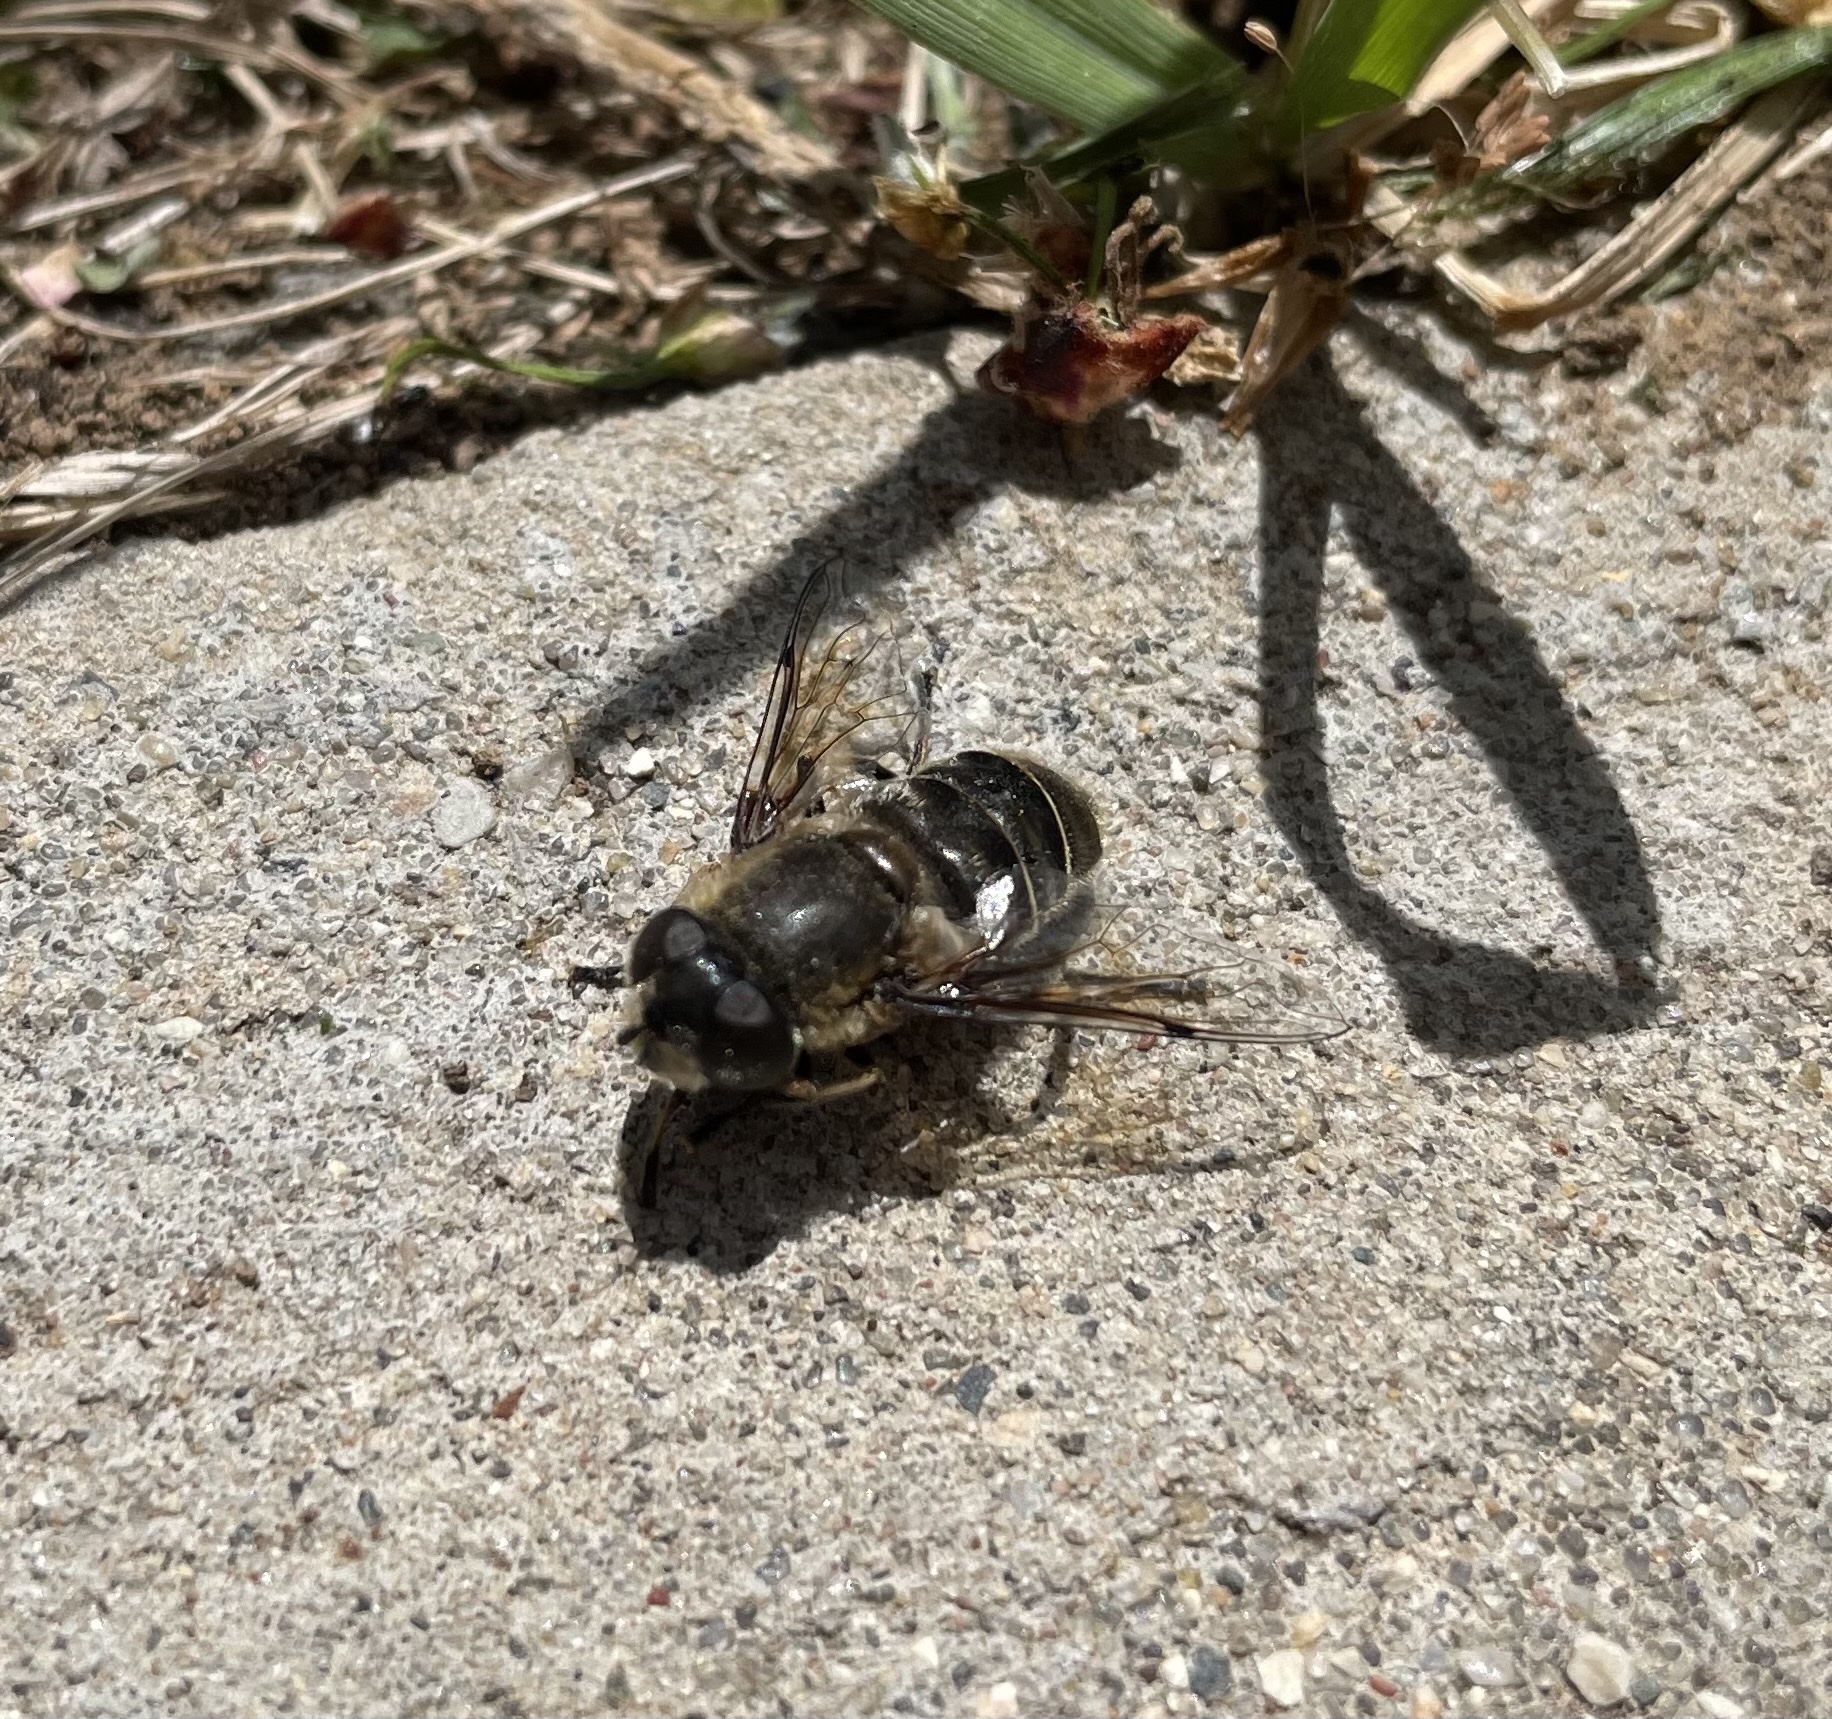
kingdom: Animalia
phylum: Arthropoda
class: Insecta
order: Diptera
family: Syrphidae
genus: Eristalis
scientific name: Eristalis dimidiata
